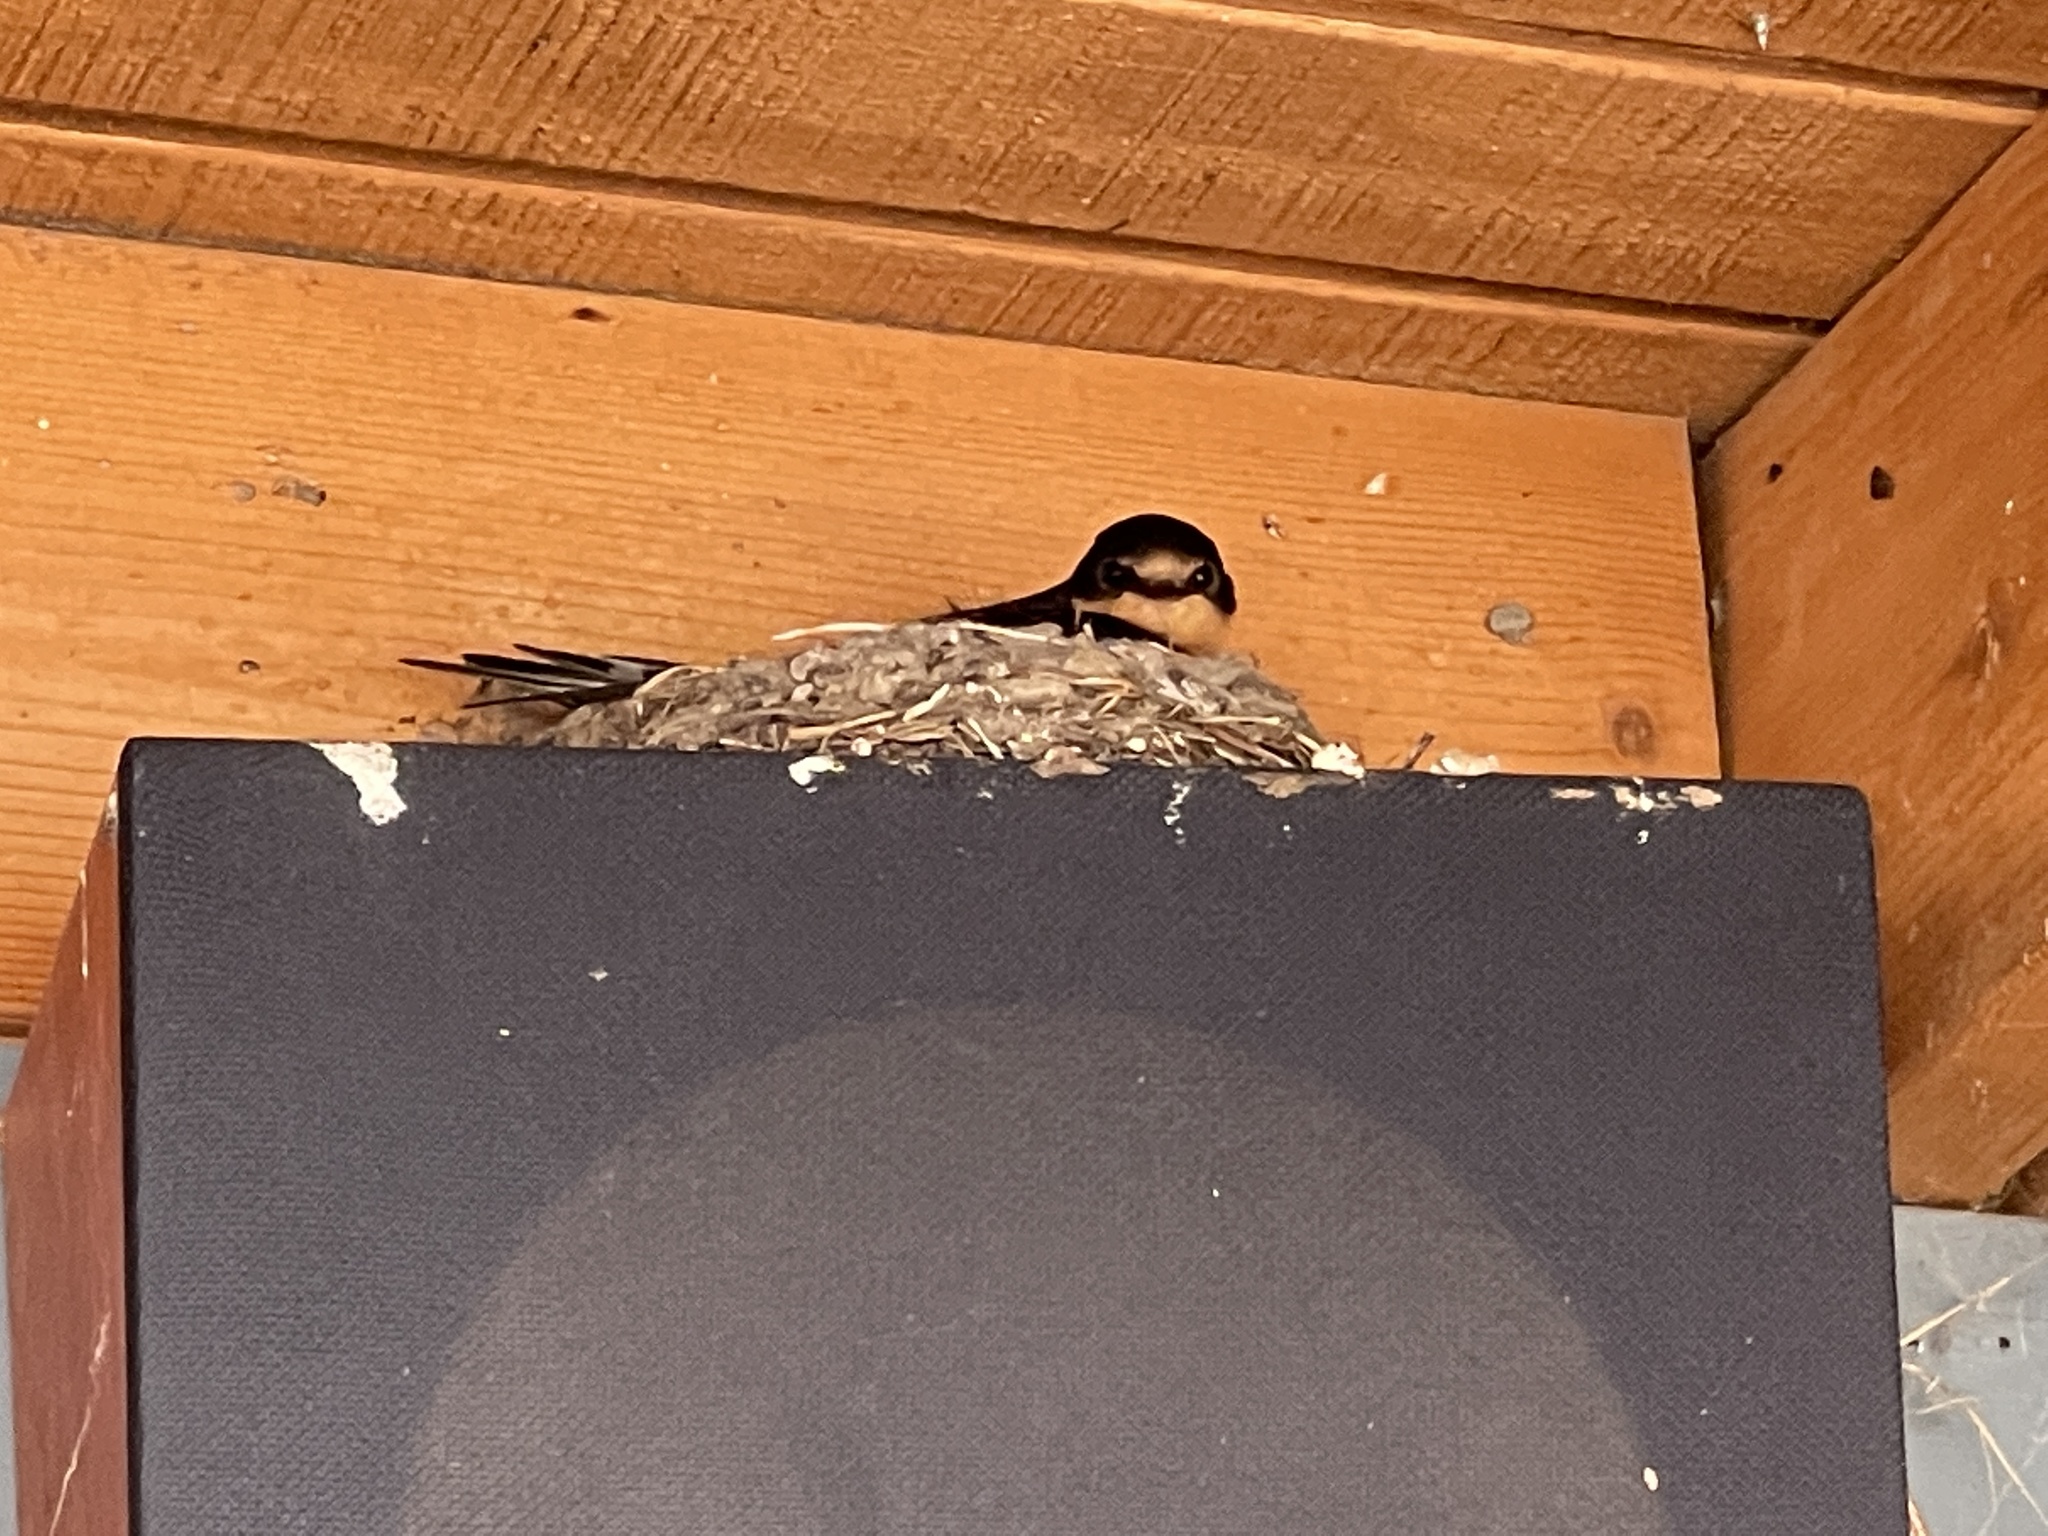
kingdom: Animalia
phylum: Chordata
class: Aves
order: Passeriformes
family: Hirundinidae
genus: Hirundo
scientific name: Hirundo rustica
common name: Barn swallow
